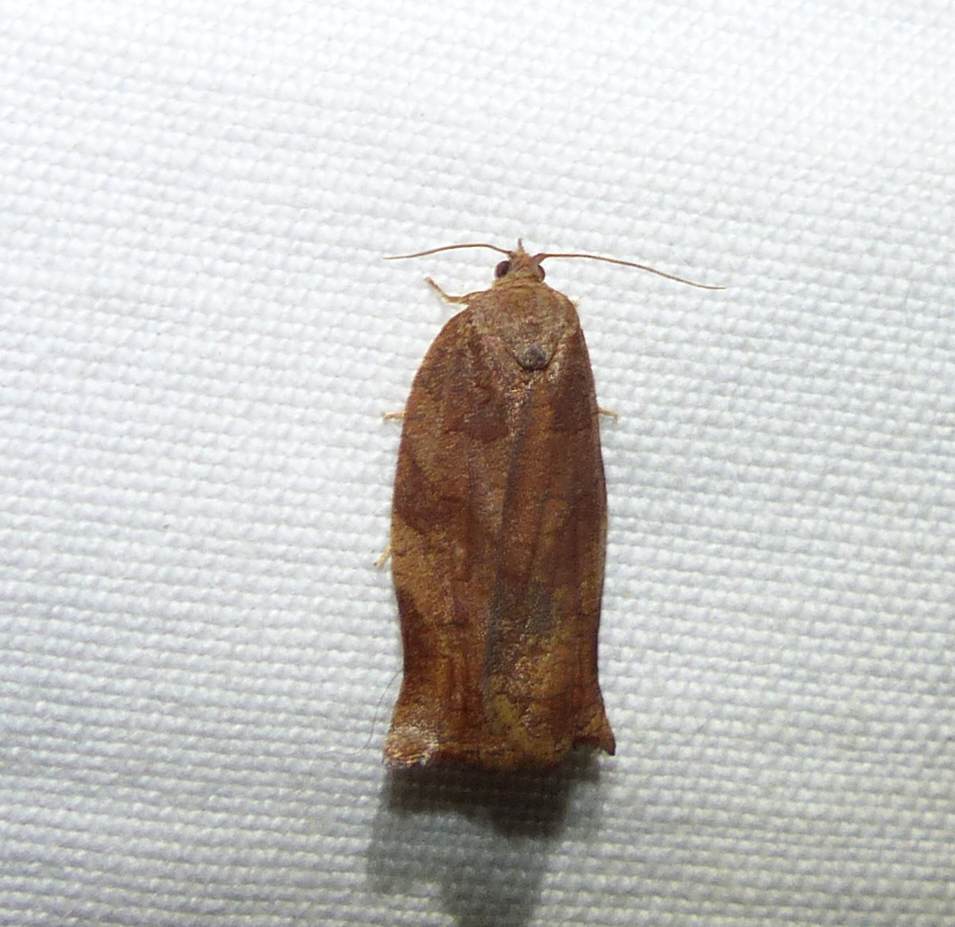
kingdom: Animalia
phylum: Arthropoda
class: Insecta
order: Lepidoptera
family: Tortricidae
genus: Choristoneura
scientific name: Choristoneura rosaceana
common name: Oblique-banded leafroller moth
